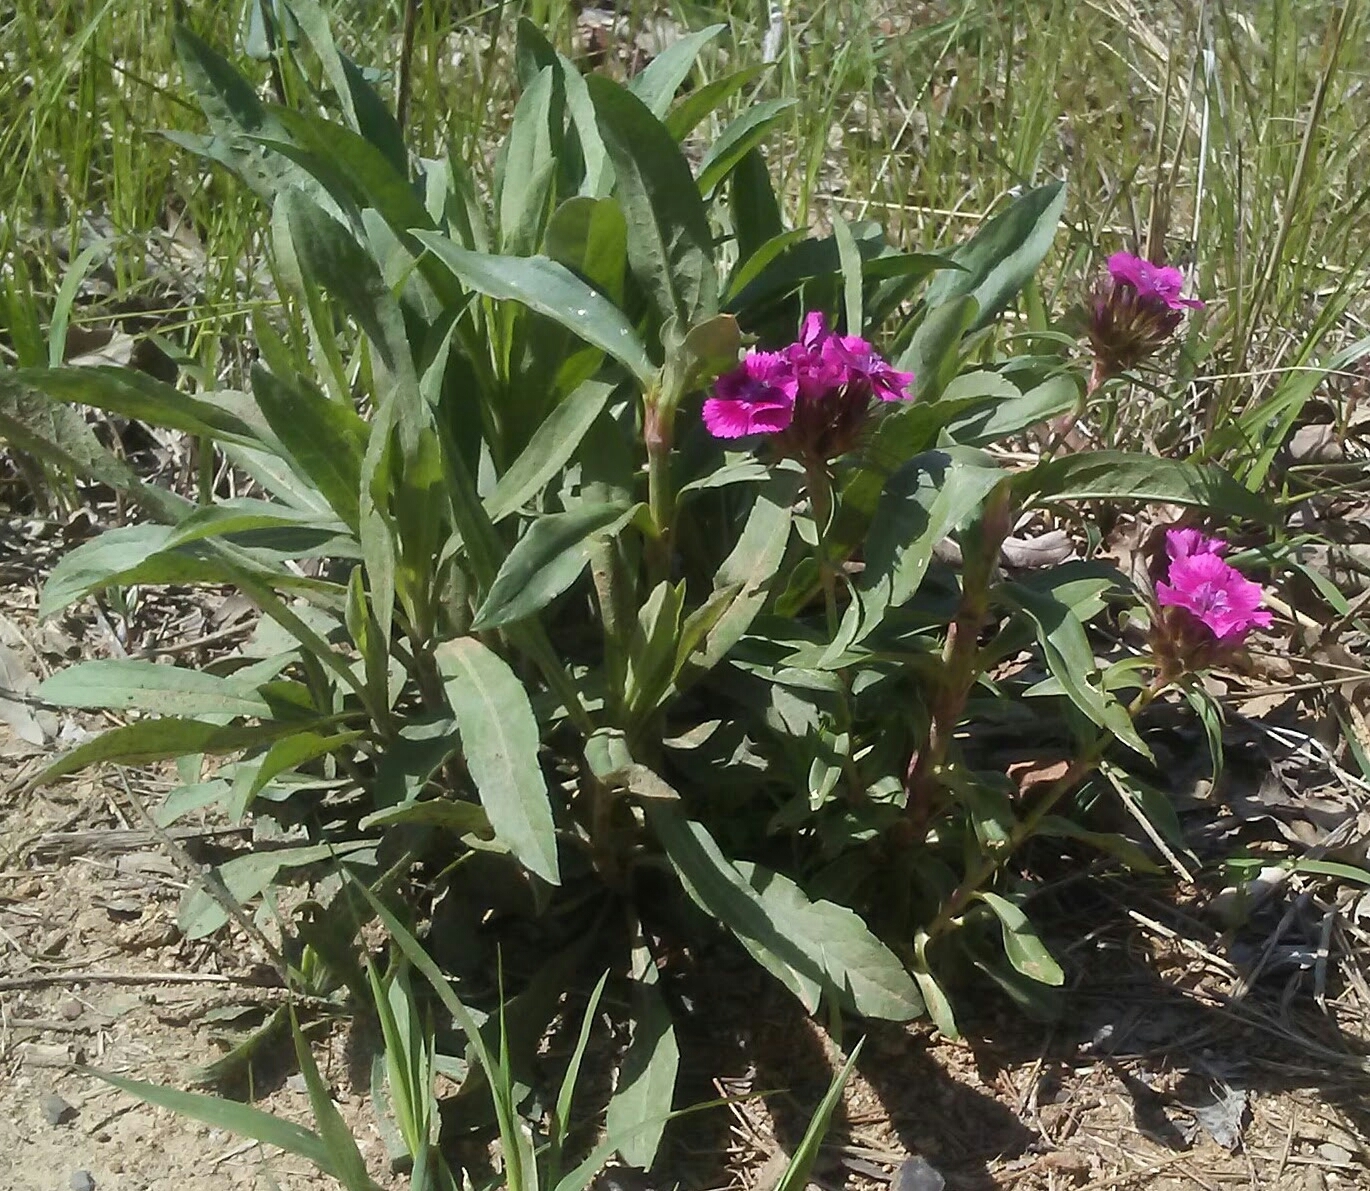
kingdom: Plantae
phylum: Tracheophyta
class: Magnoliopsida
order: Caryophyllales
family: Caryophyllaceae
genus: Dianthus
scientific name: Dianthus barbatus
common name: Sweet-william
